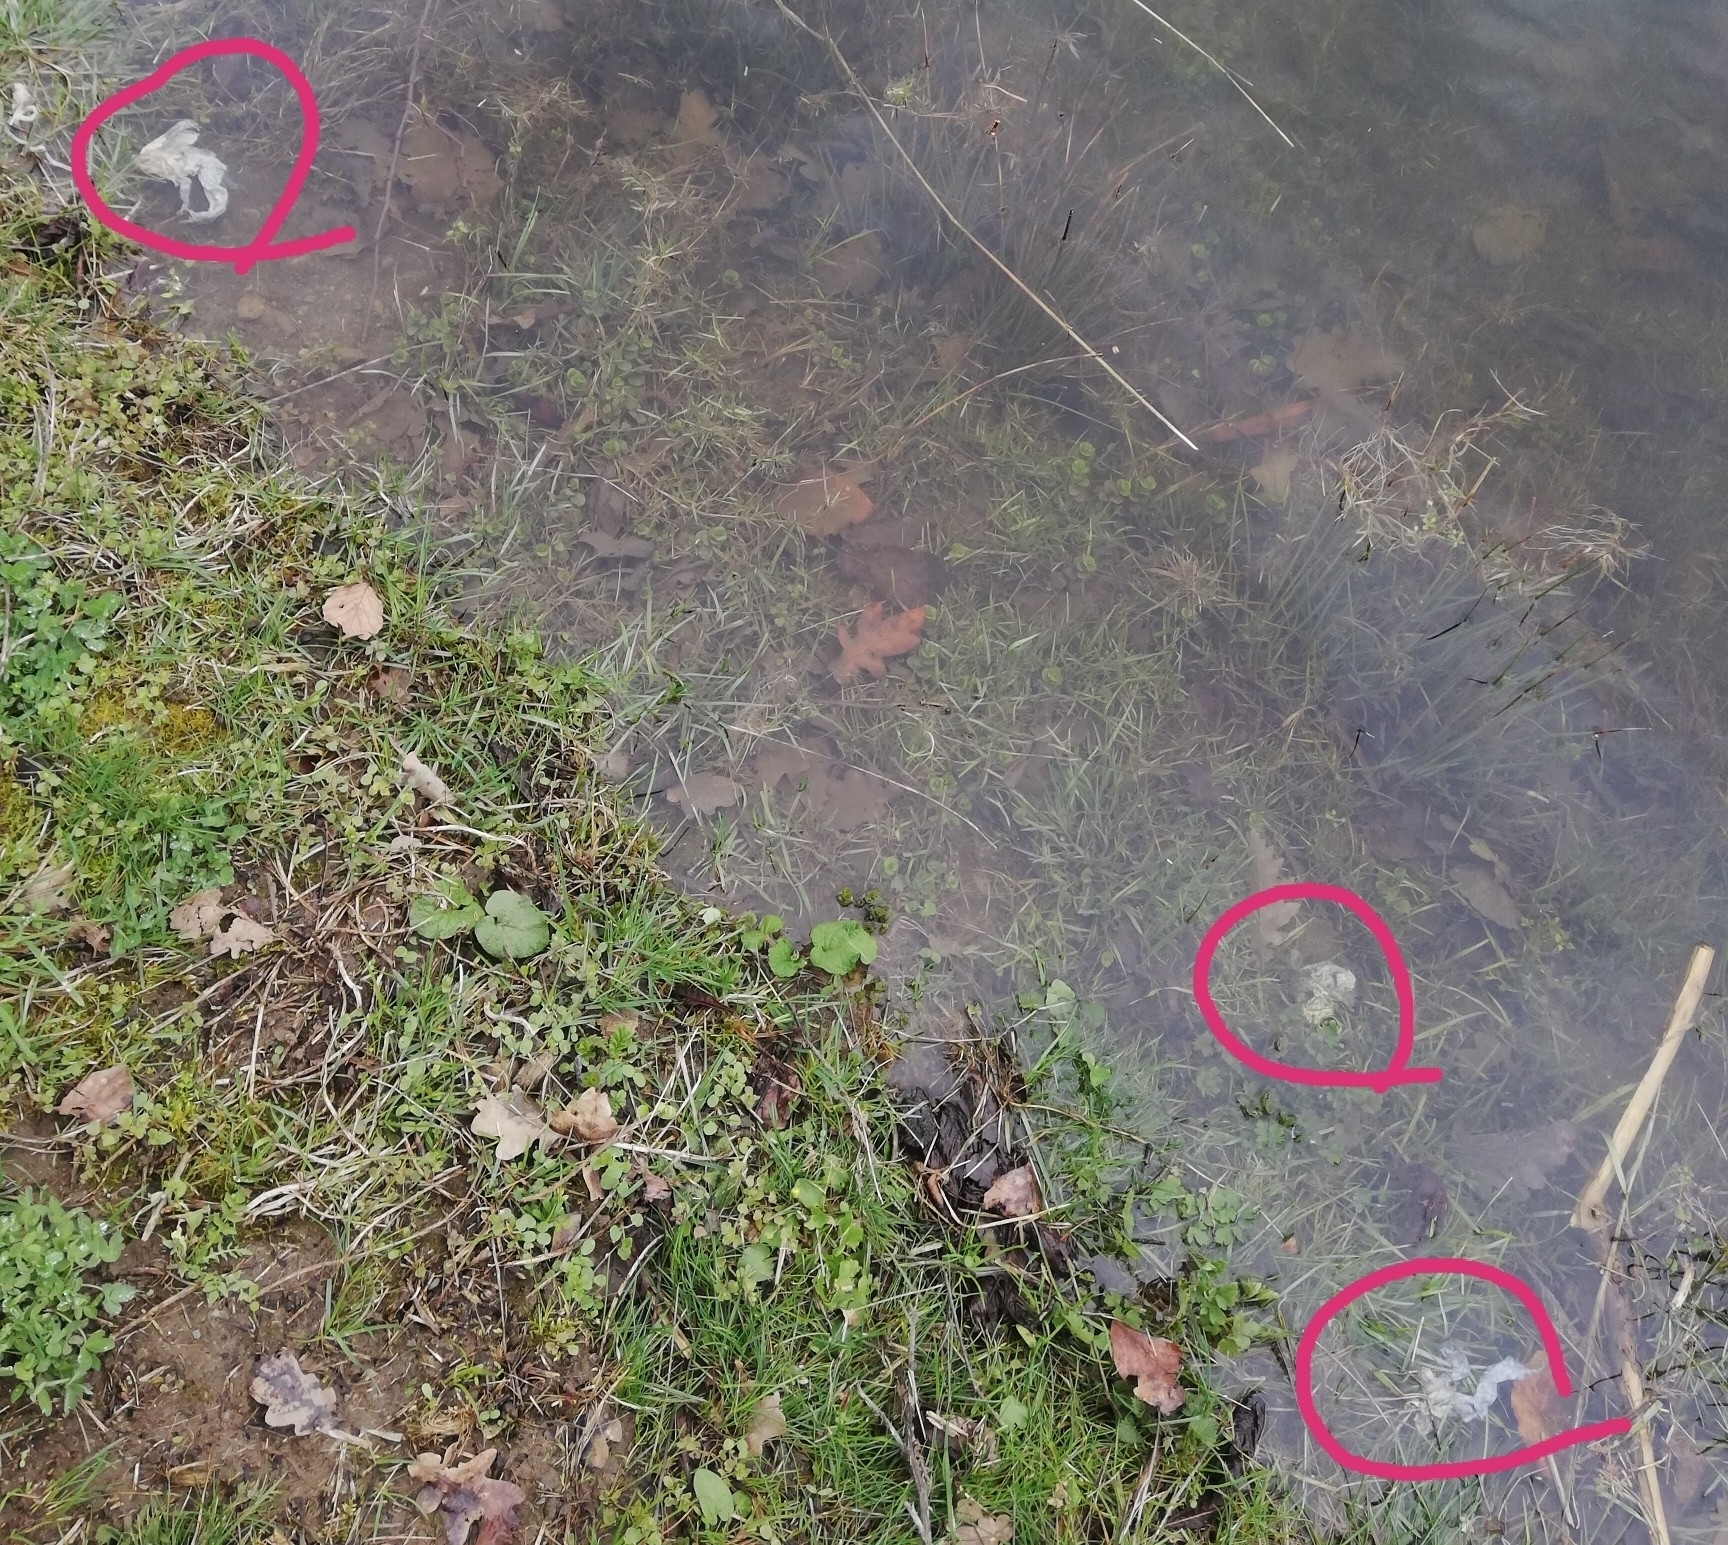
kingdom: Animalia
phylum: Chordata
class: Amphibia
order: Anura
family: Bufonidae
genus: Bufo
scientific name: Bufo bufo
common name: Common toad
